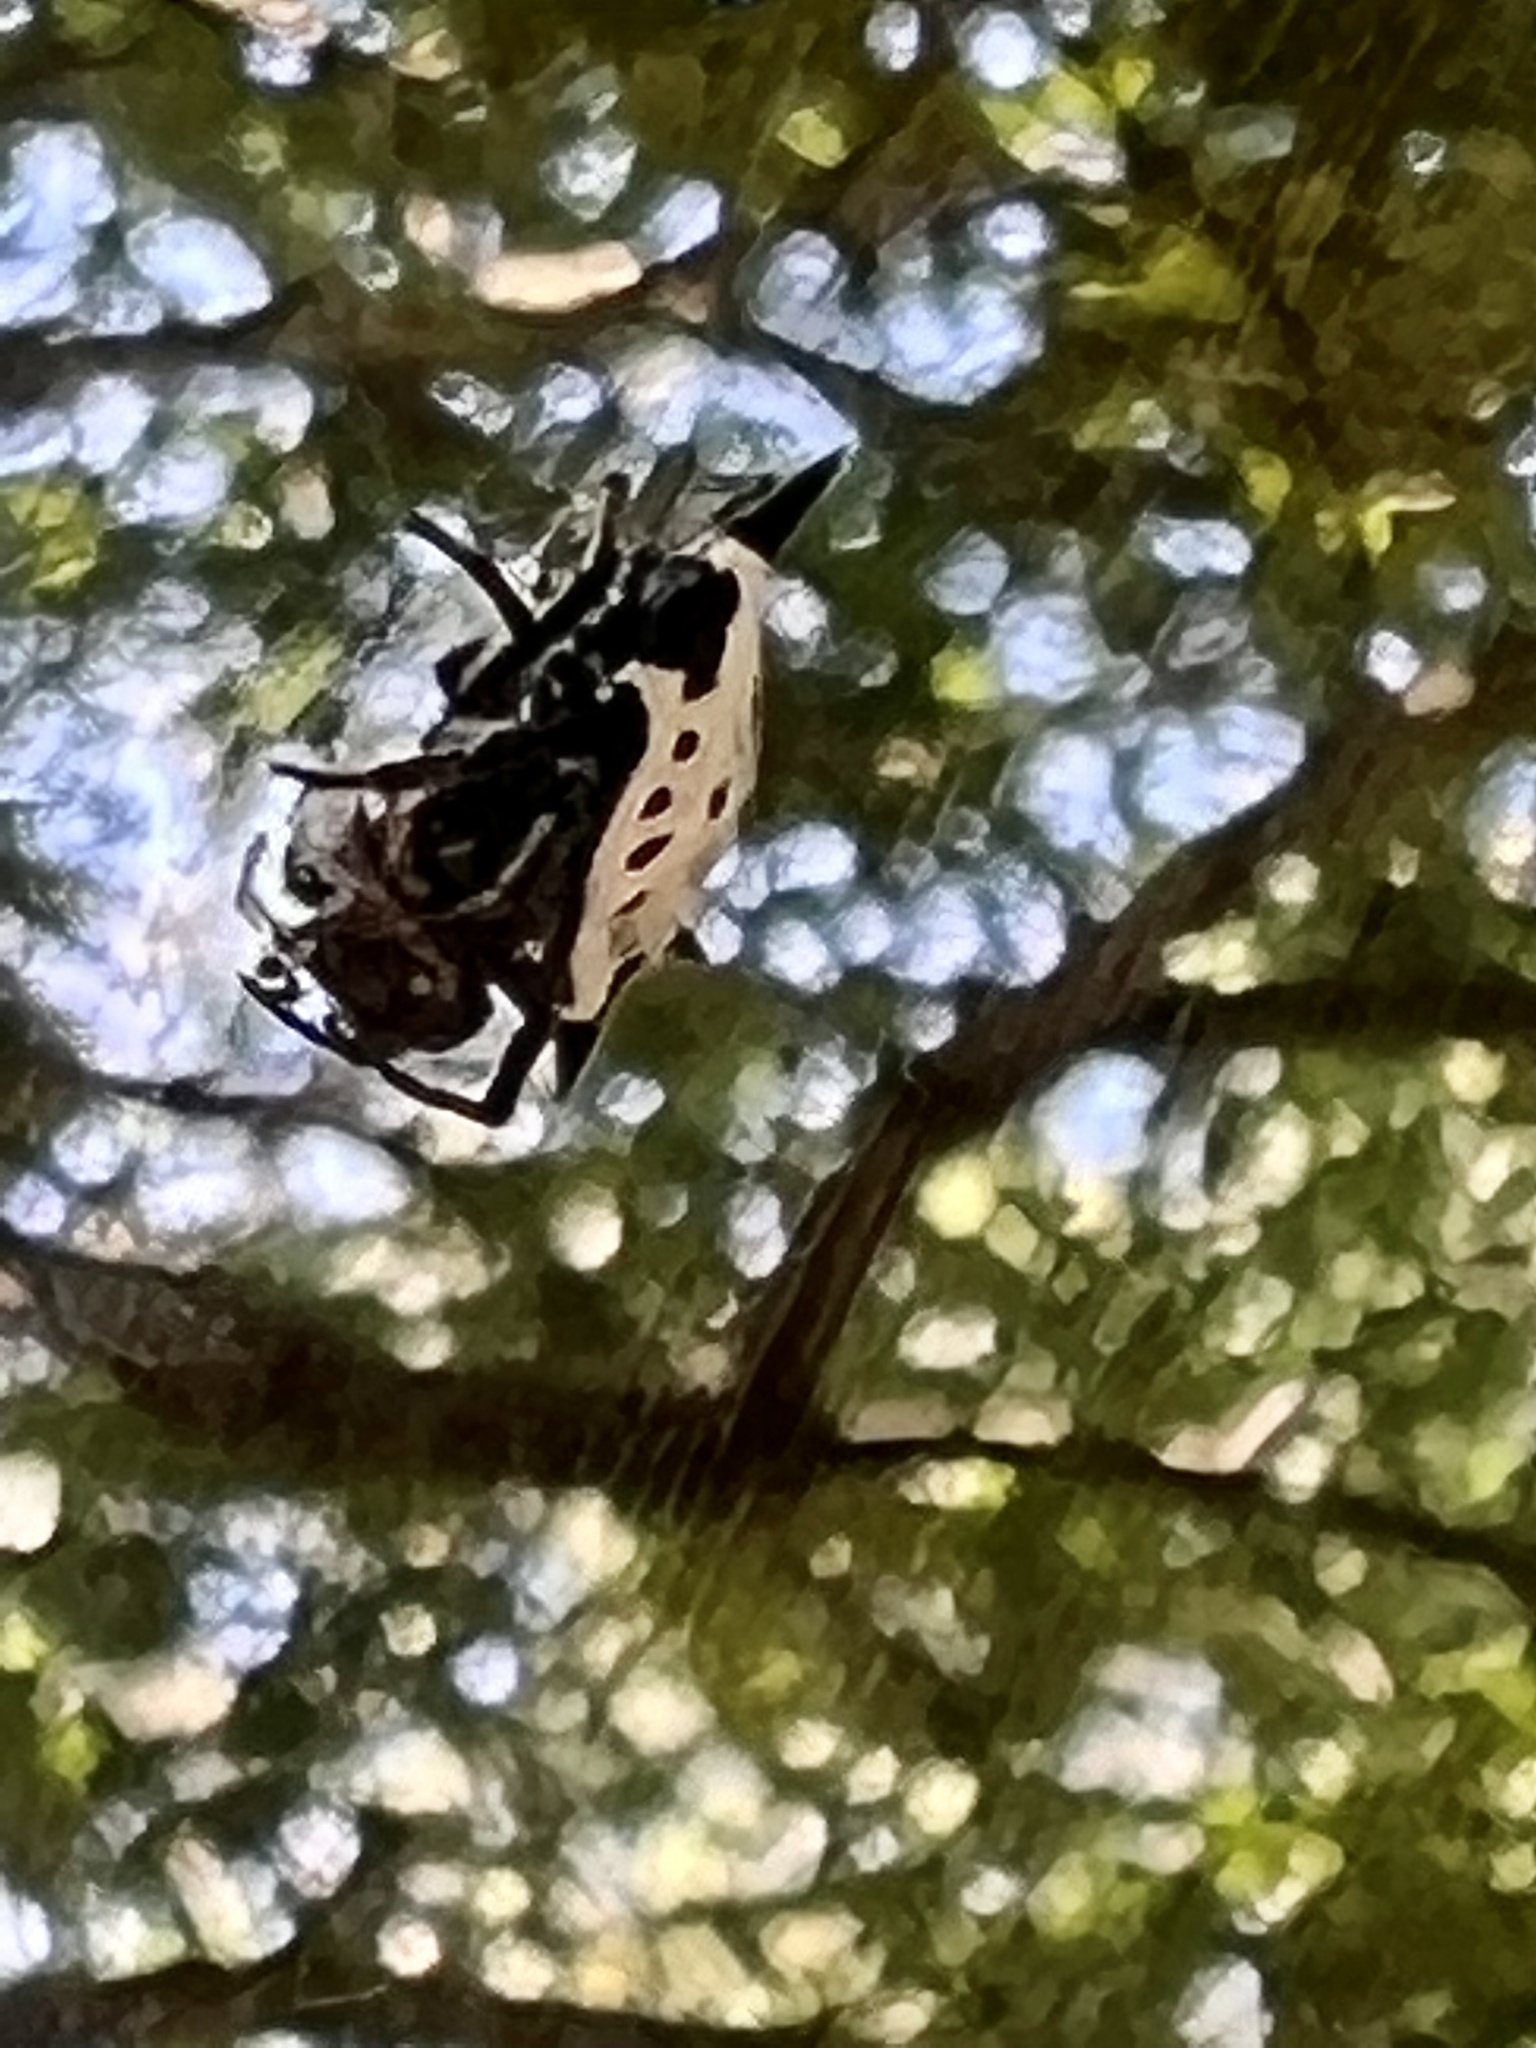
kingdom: Animalia
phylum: Arthropoda
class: Arachnida
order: Araneae
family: Araneidae
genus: Gasteracantha
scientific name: Gasteracantha cancriformis
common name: Orb weavers
